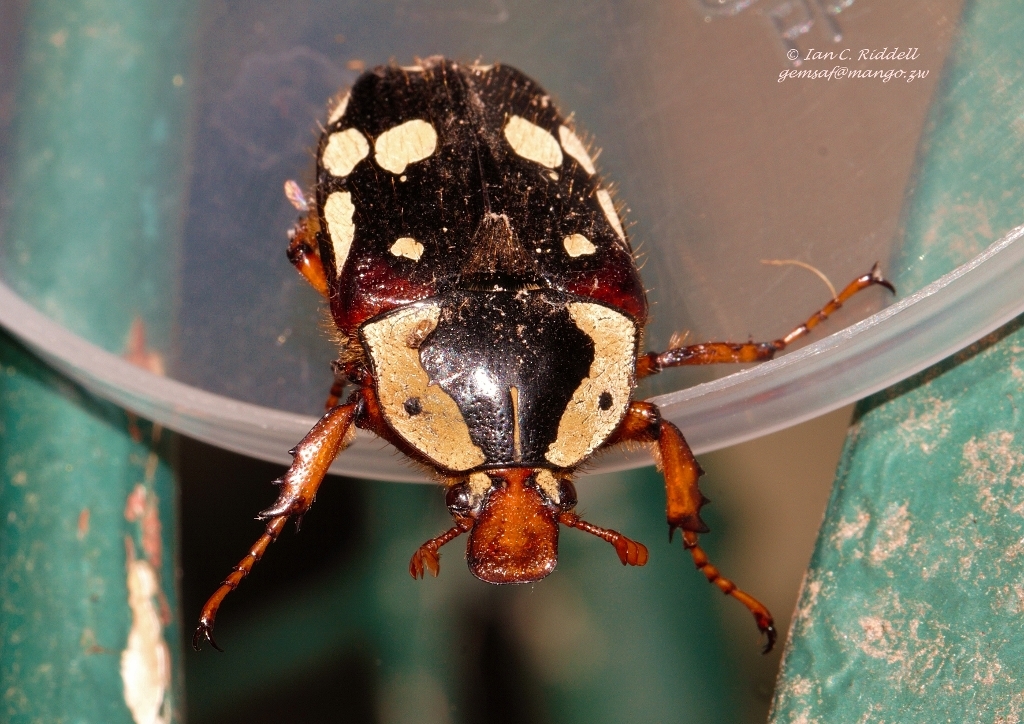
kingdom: Animalia
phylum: Arthropoda
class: Insecta
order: Coleoptera
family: Scarabaeidae
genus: Cheirolasia
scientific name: Cheirolasia burkei
